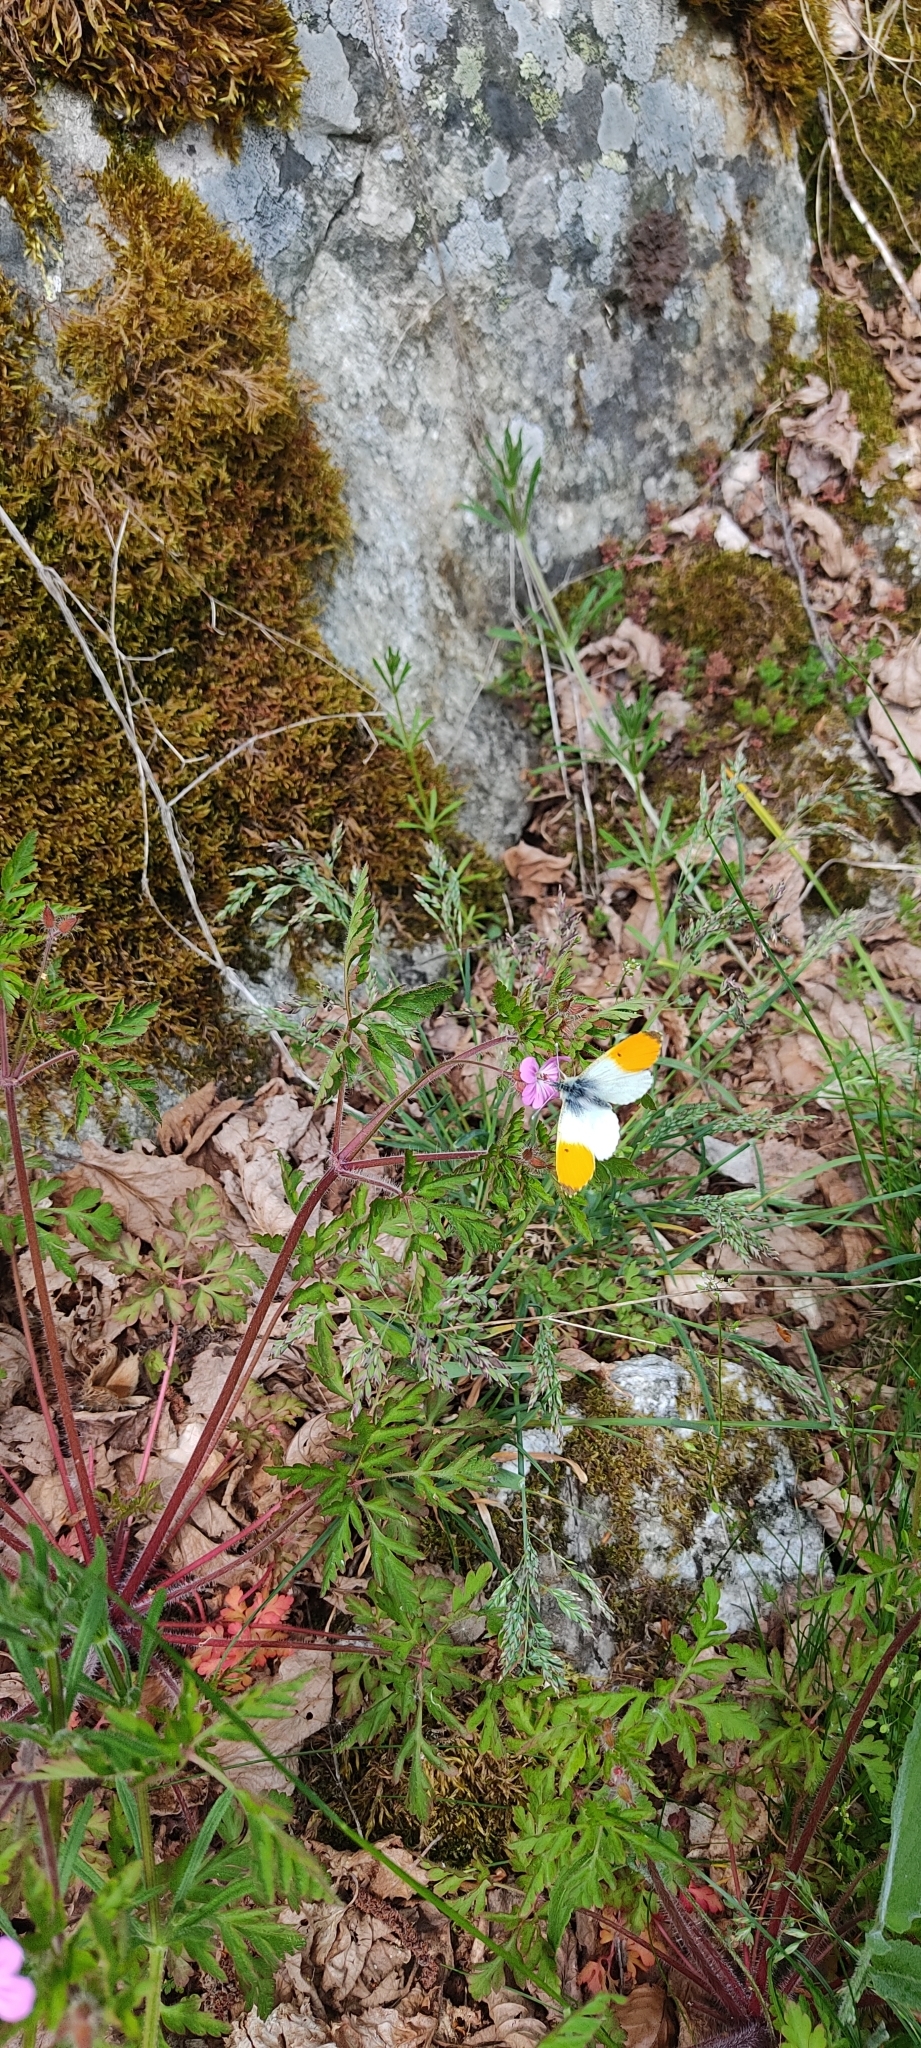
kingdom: Animalia
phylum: Arthropoda
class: Insecta
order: Lepidoptera
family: Pieridae
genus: Anthocharis
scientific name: Anthocharis cardamines
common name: Orange-tip
